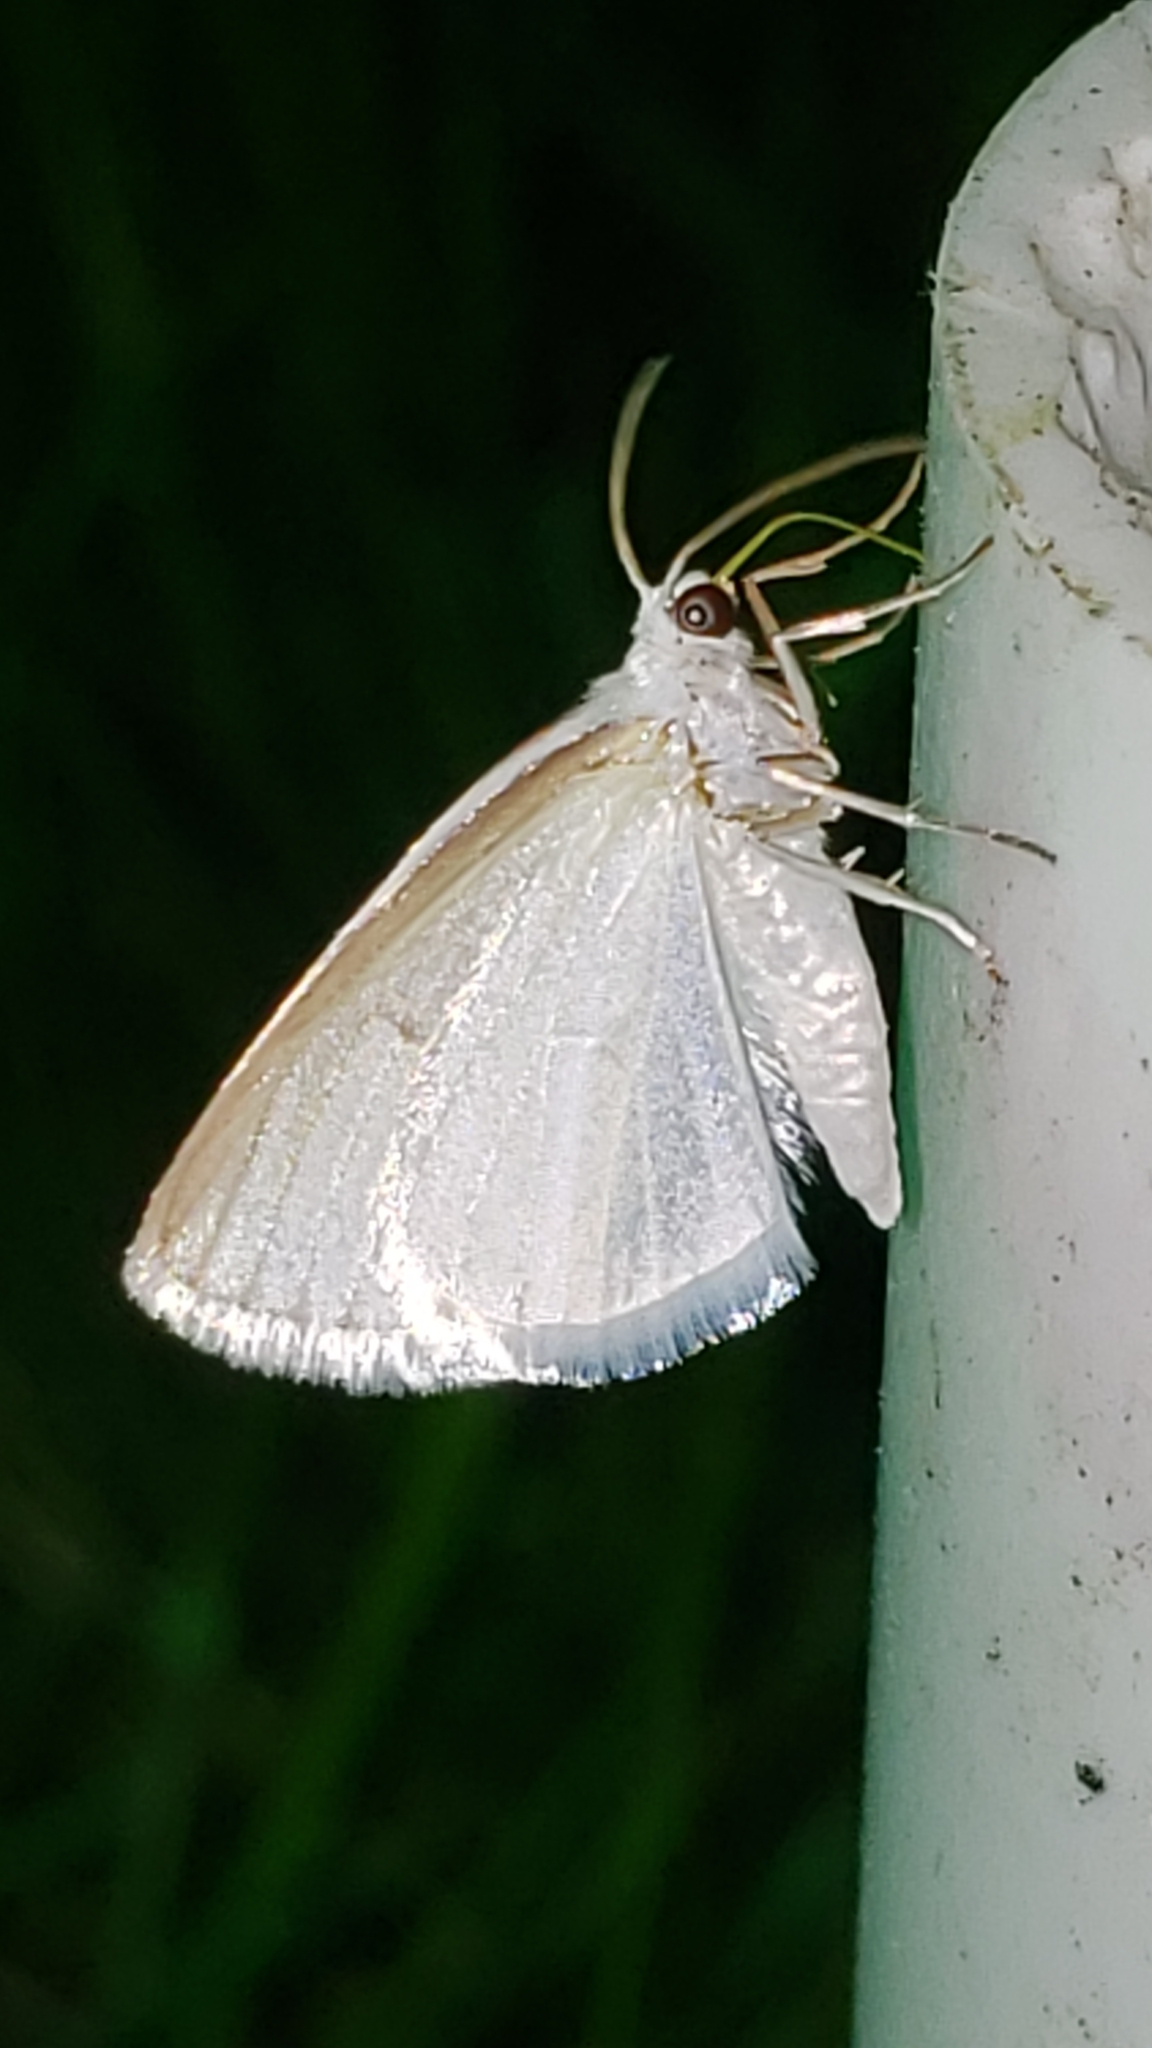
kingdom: Animalia
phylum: Arthropoda
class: Insecta
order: Lepidoptera
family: Geometridae
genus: Lomographa
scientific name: Lomographa vestaliata
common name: White spring moth
